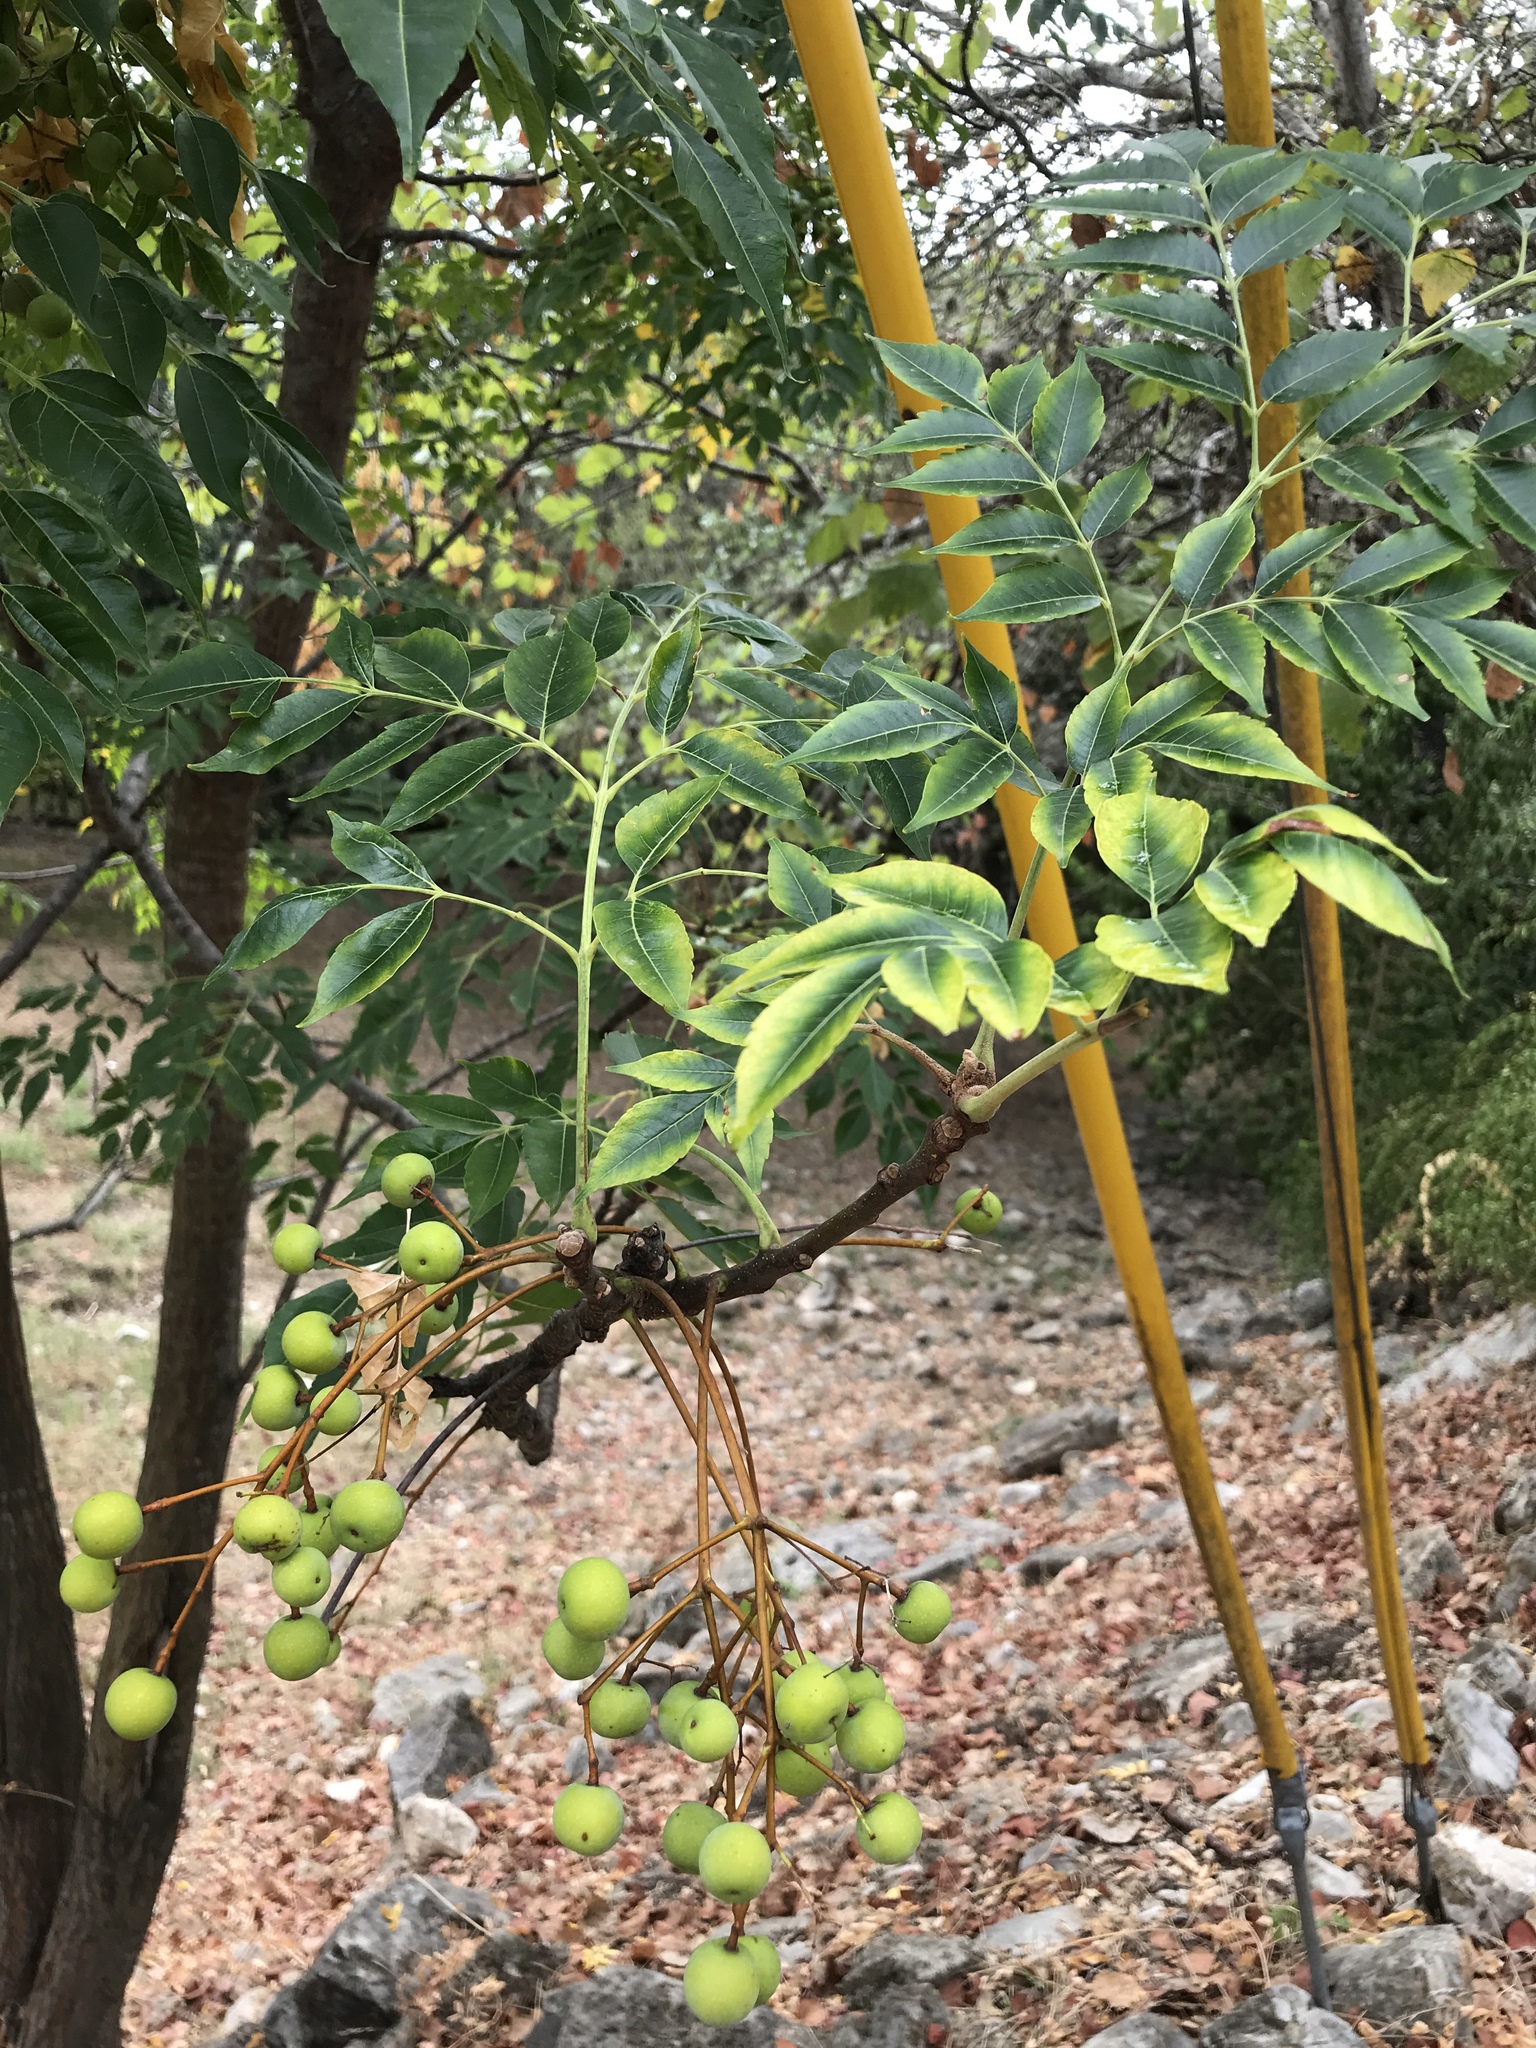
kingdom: Plantae
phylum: Tracheophyta
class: Magnoliopsida
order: Sapindales
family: Meliaceae
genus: Melia
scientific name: Melia azedarach
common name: Chinaberrytree
